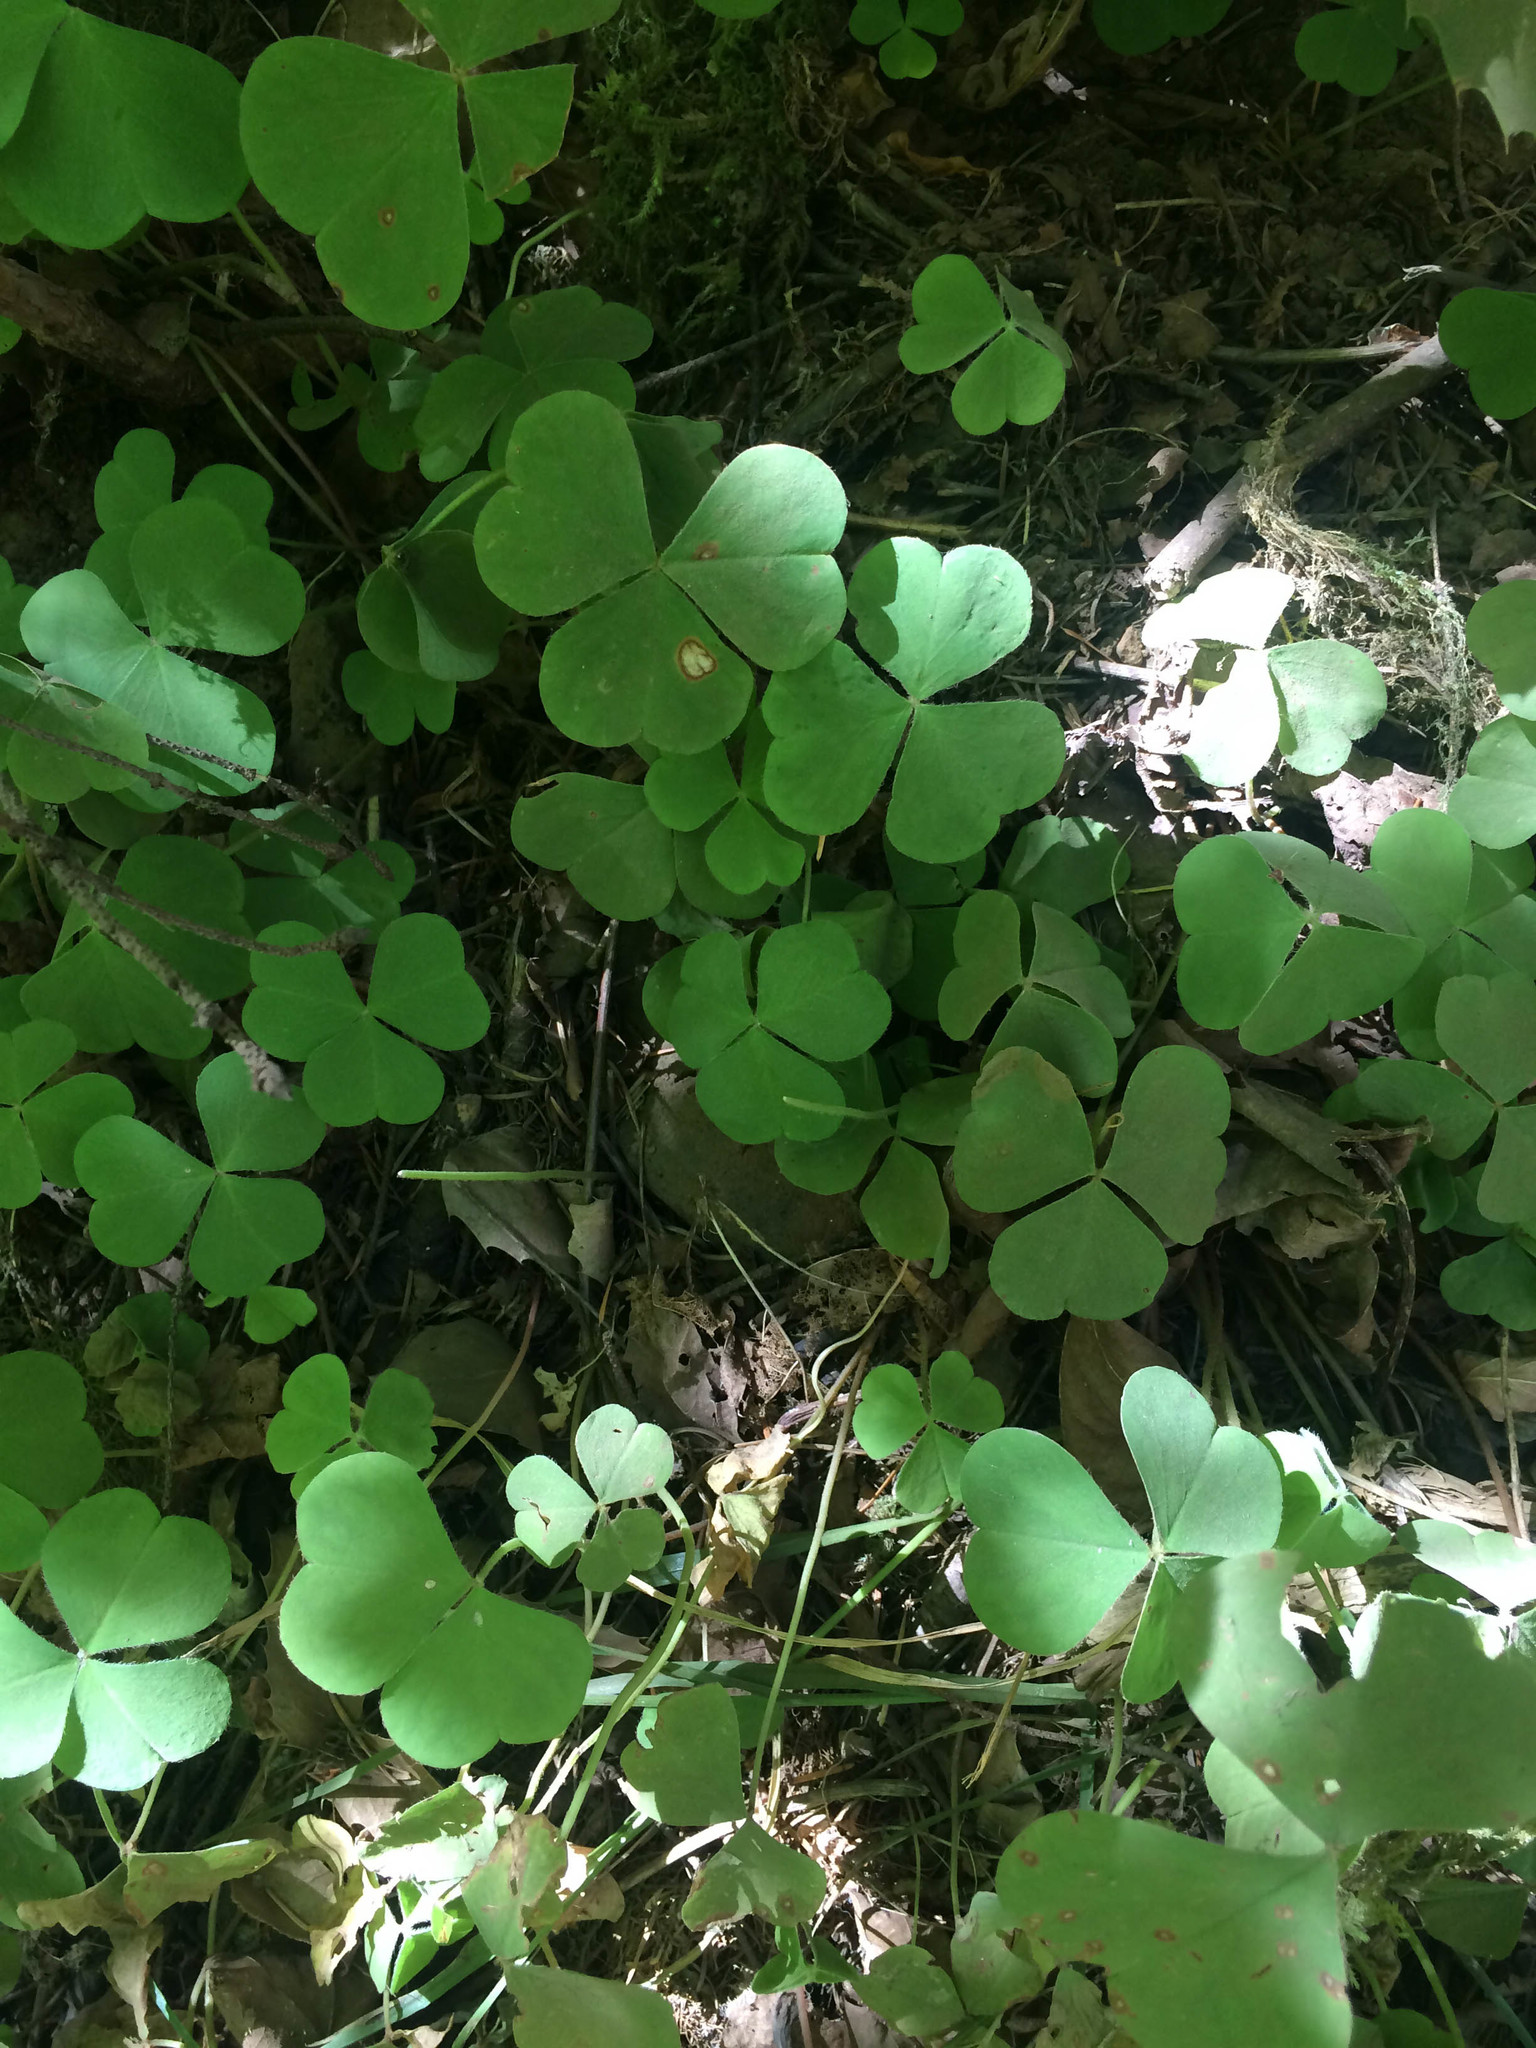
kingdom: Plantae
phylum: Tracheophyta
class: Magnoliopsida
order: Oxalidales
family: Oxalidaceae
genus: Oxalis
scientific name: Oxalis oregana
